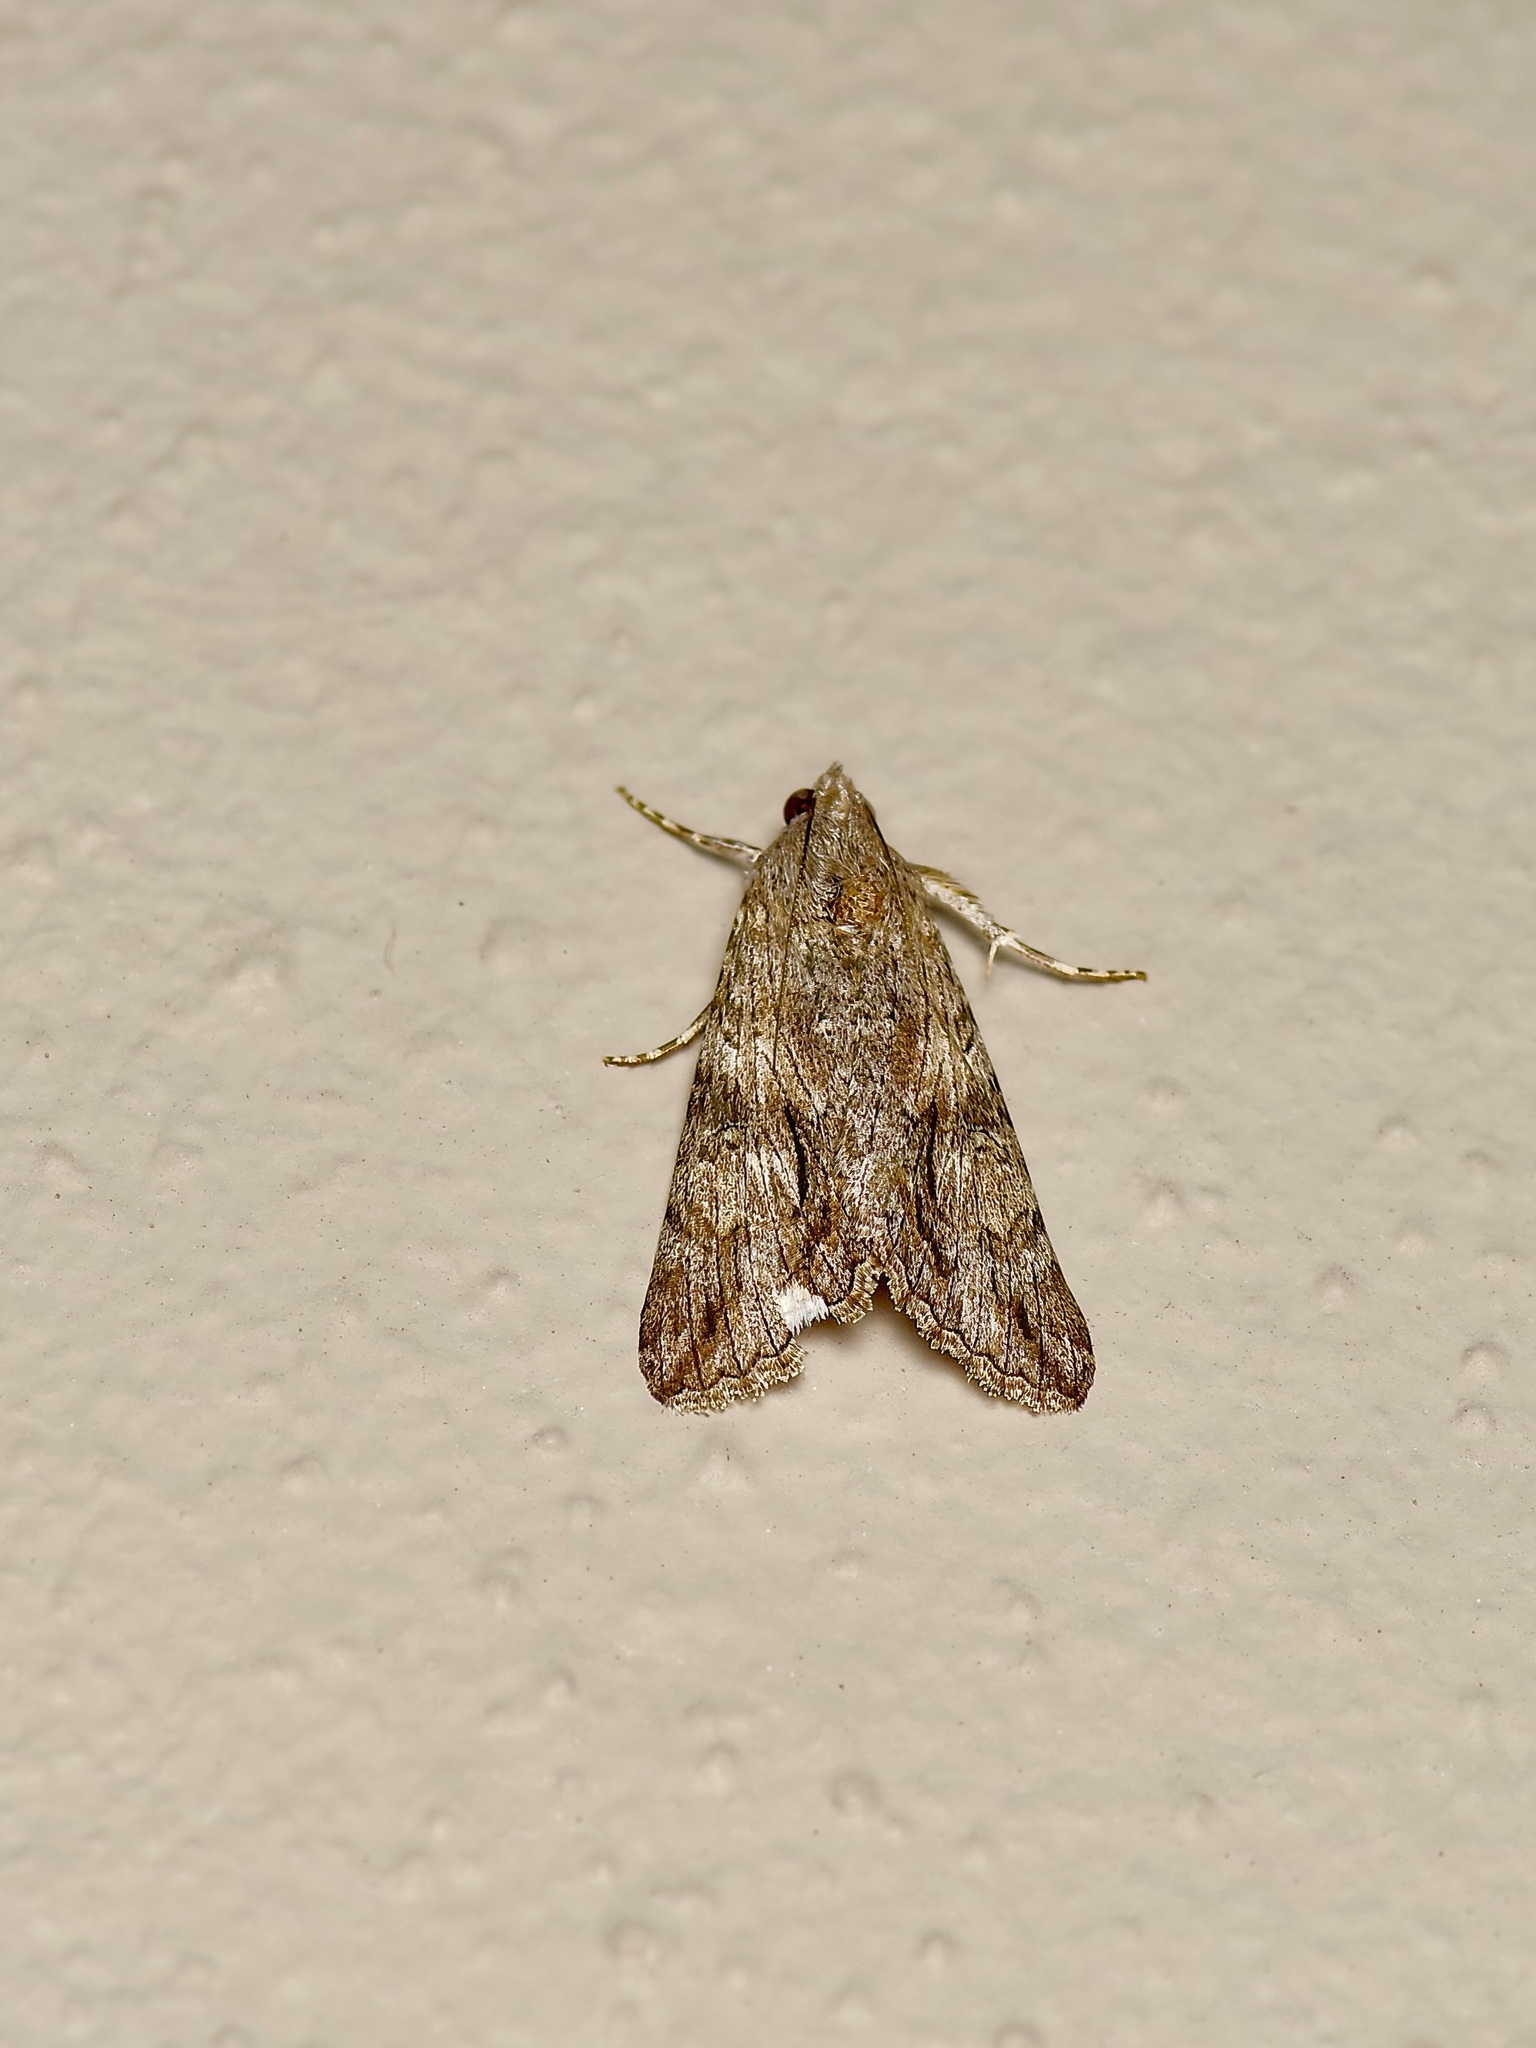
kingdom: Animalia
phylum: Arthropoda
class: Insecta
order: Lepidoptera
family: Erebidae
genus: Melipotis
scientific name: Melipotis jucunda
